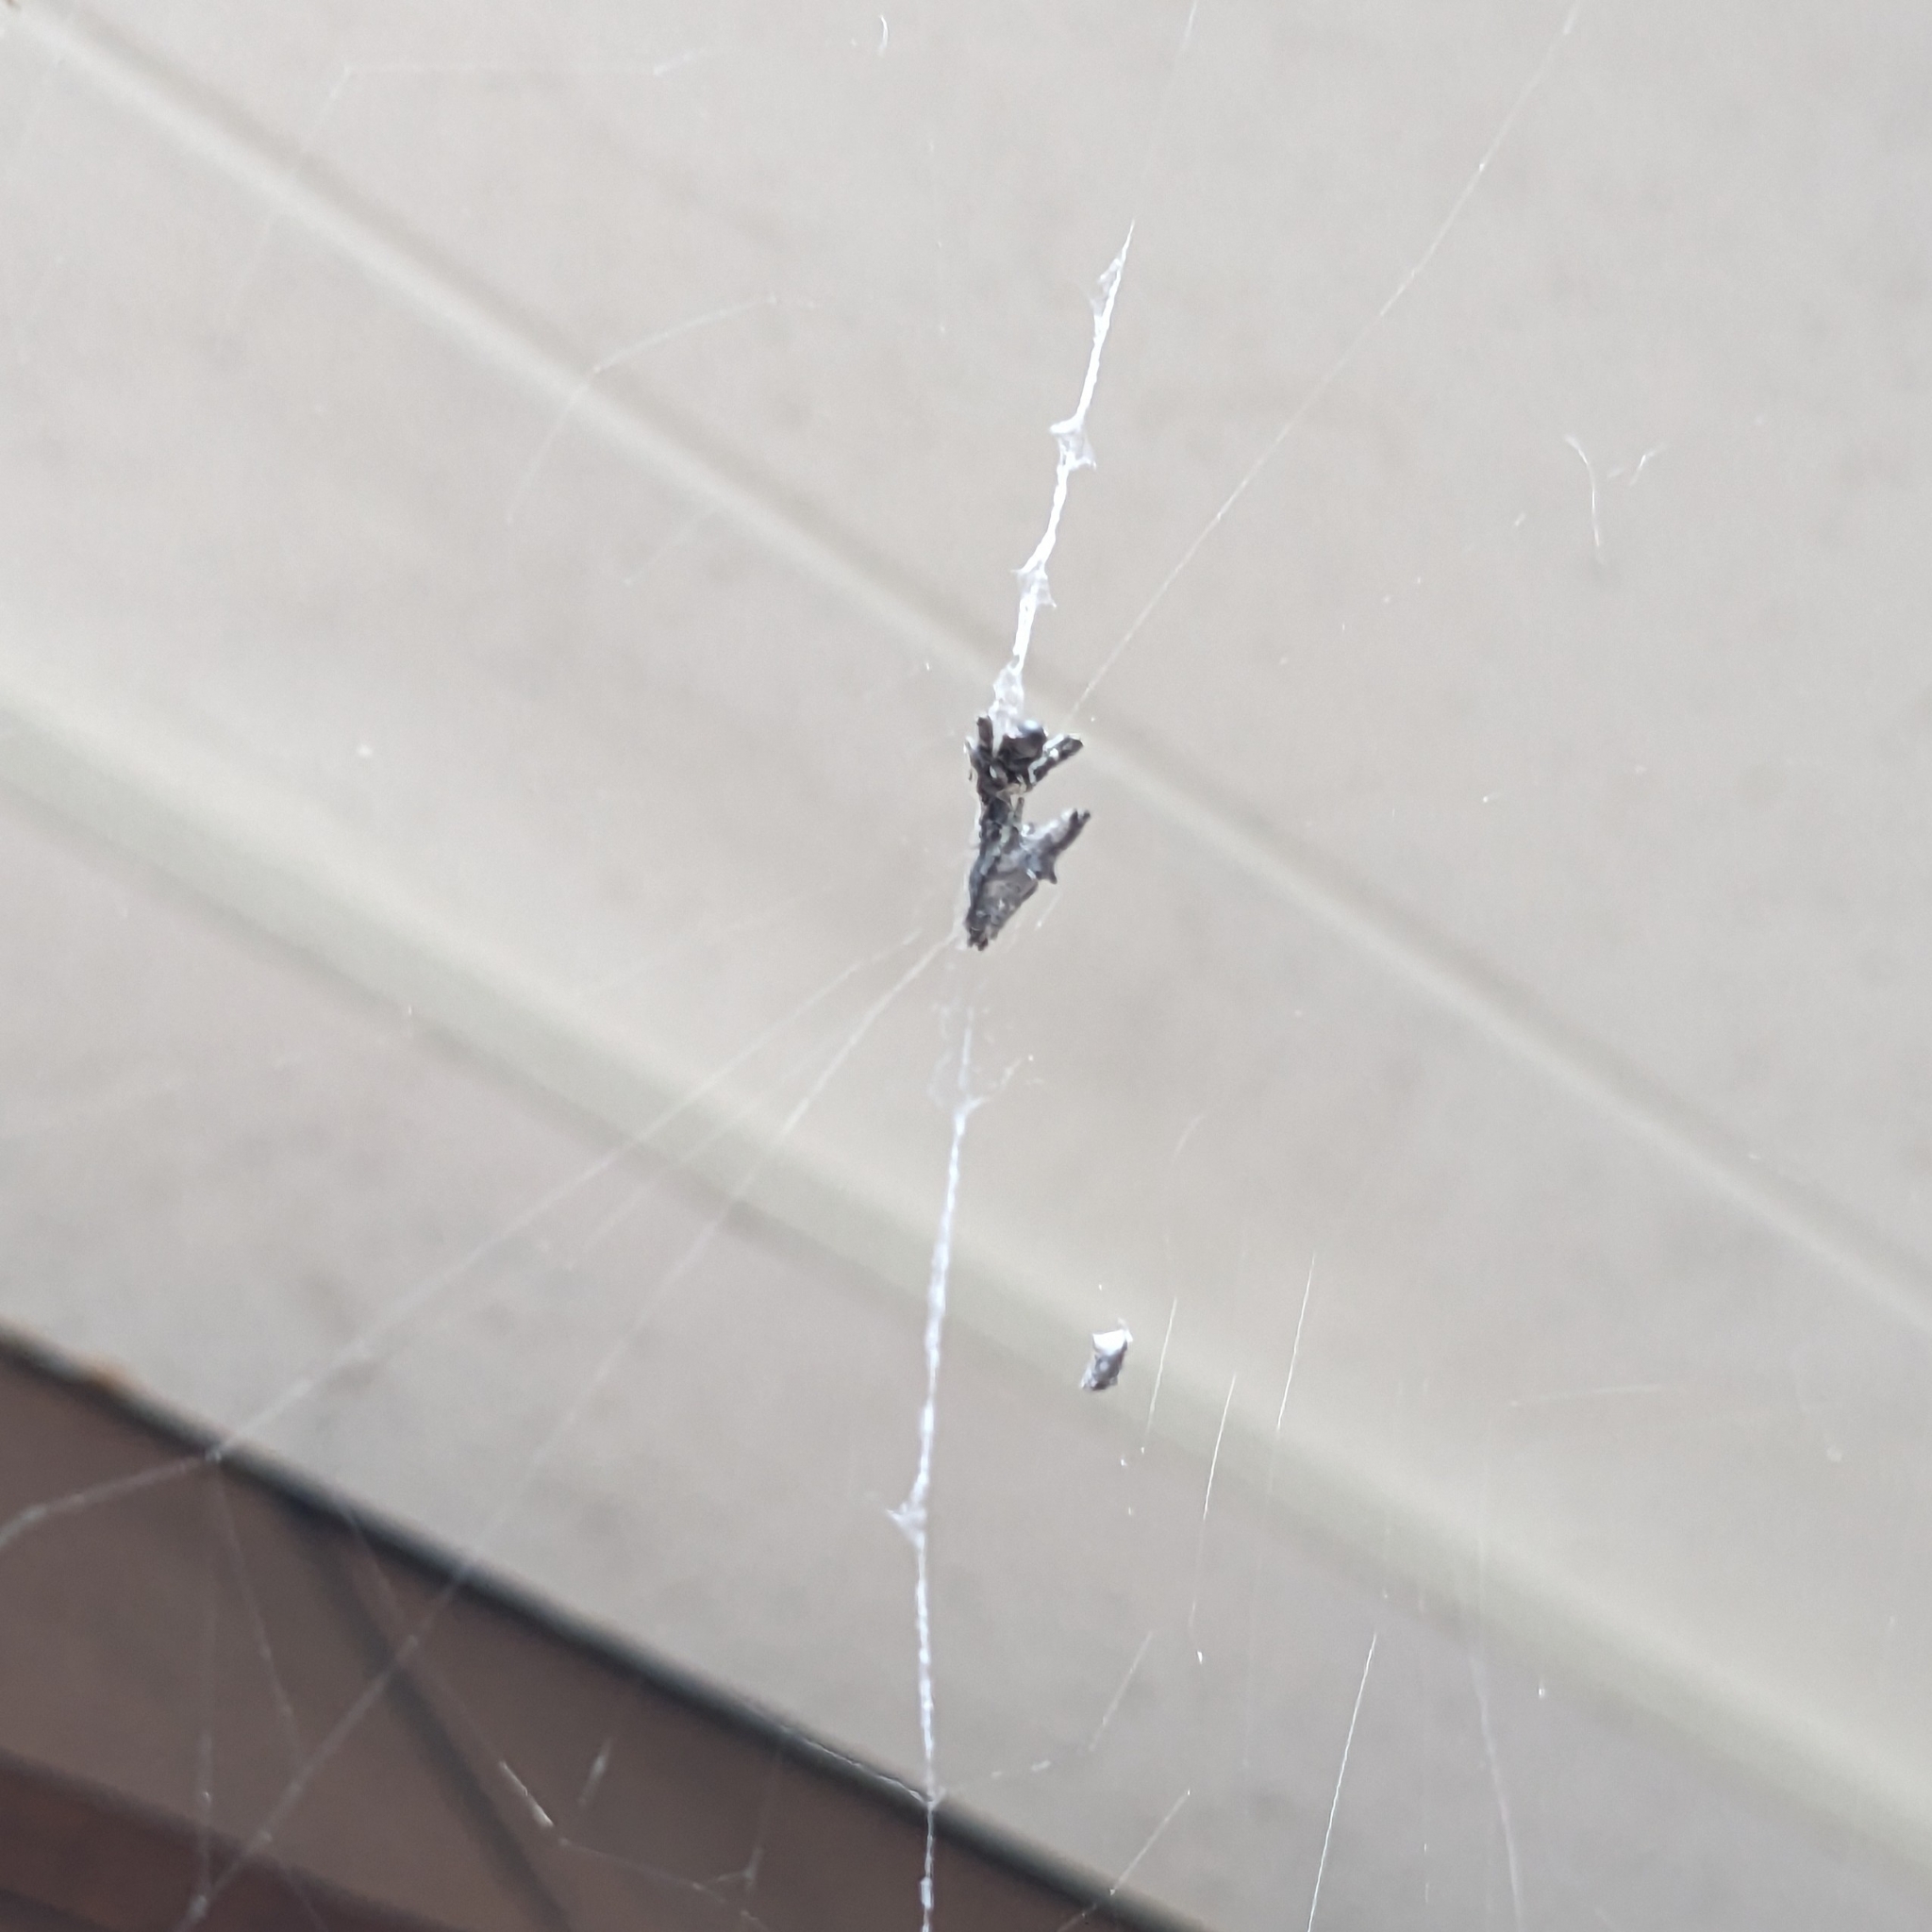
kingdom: Animalia
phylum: Arthropoda
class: Arachnida
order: Araneae
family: Uloboridae
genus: Philoponella
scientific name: Philoponella congregabilis
